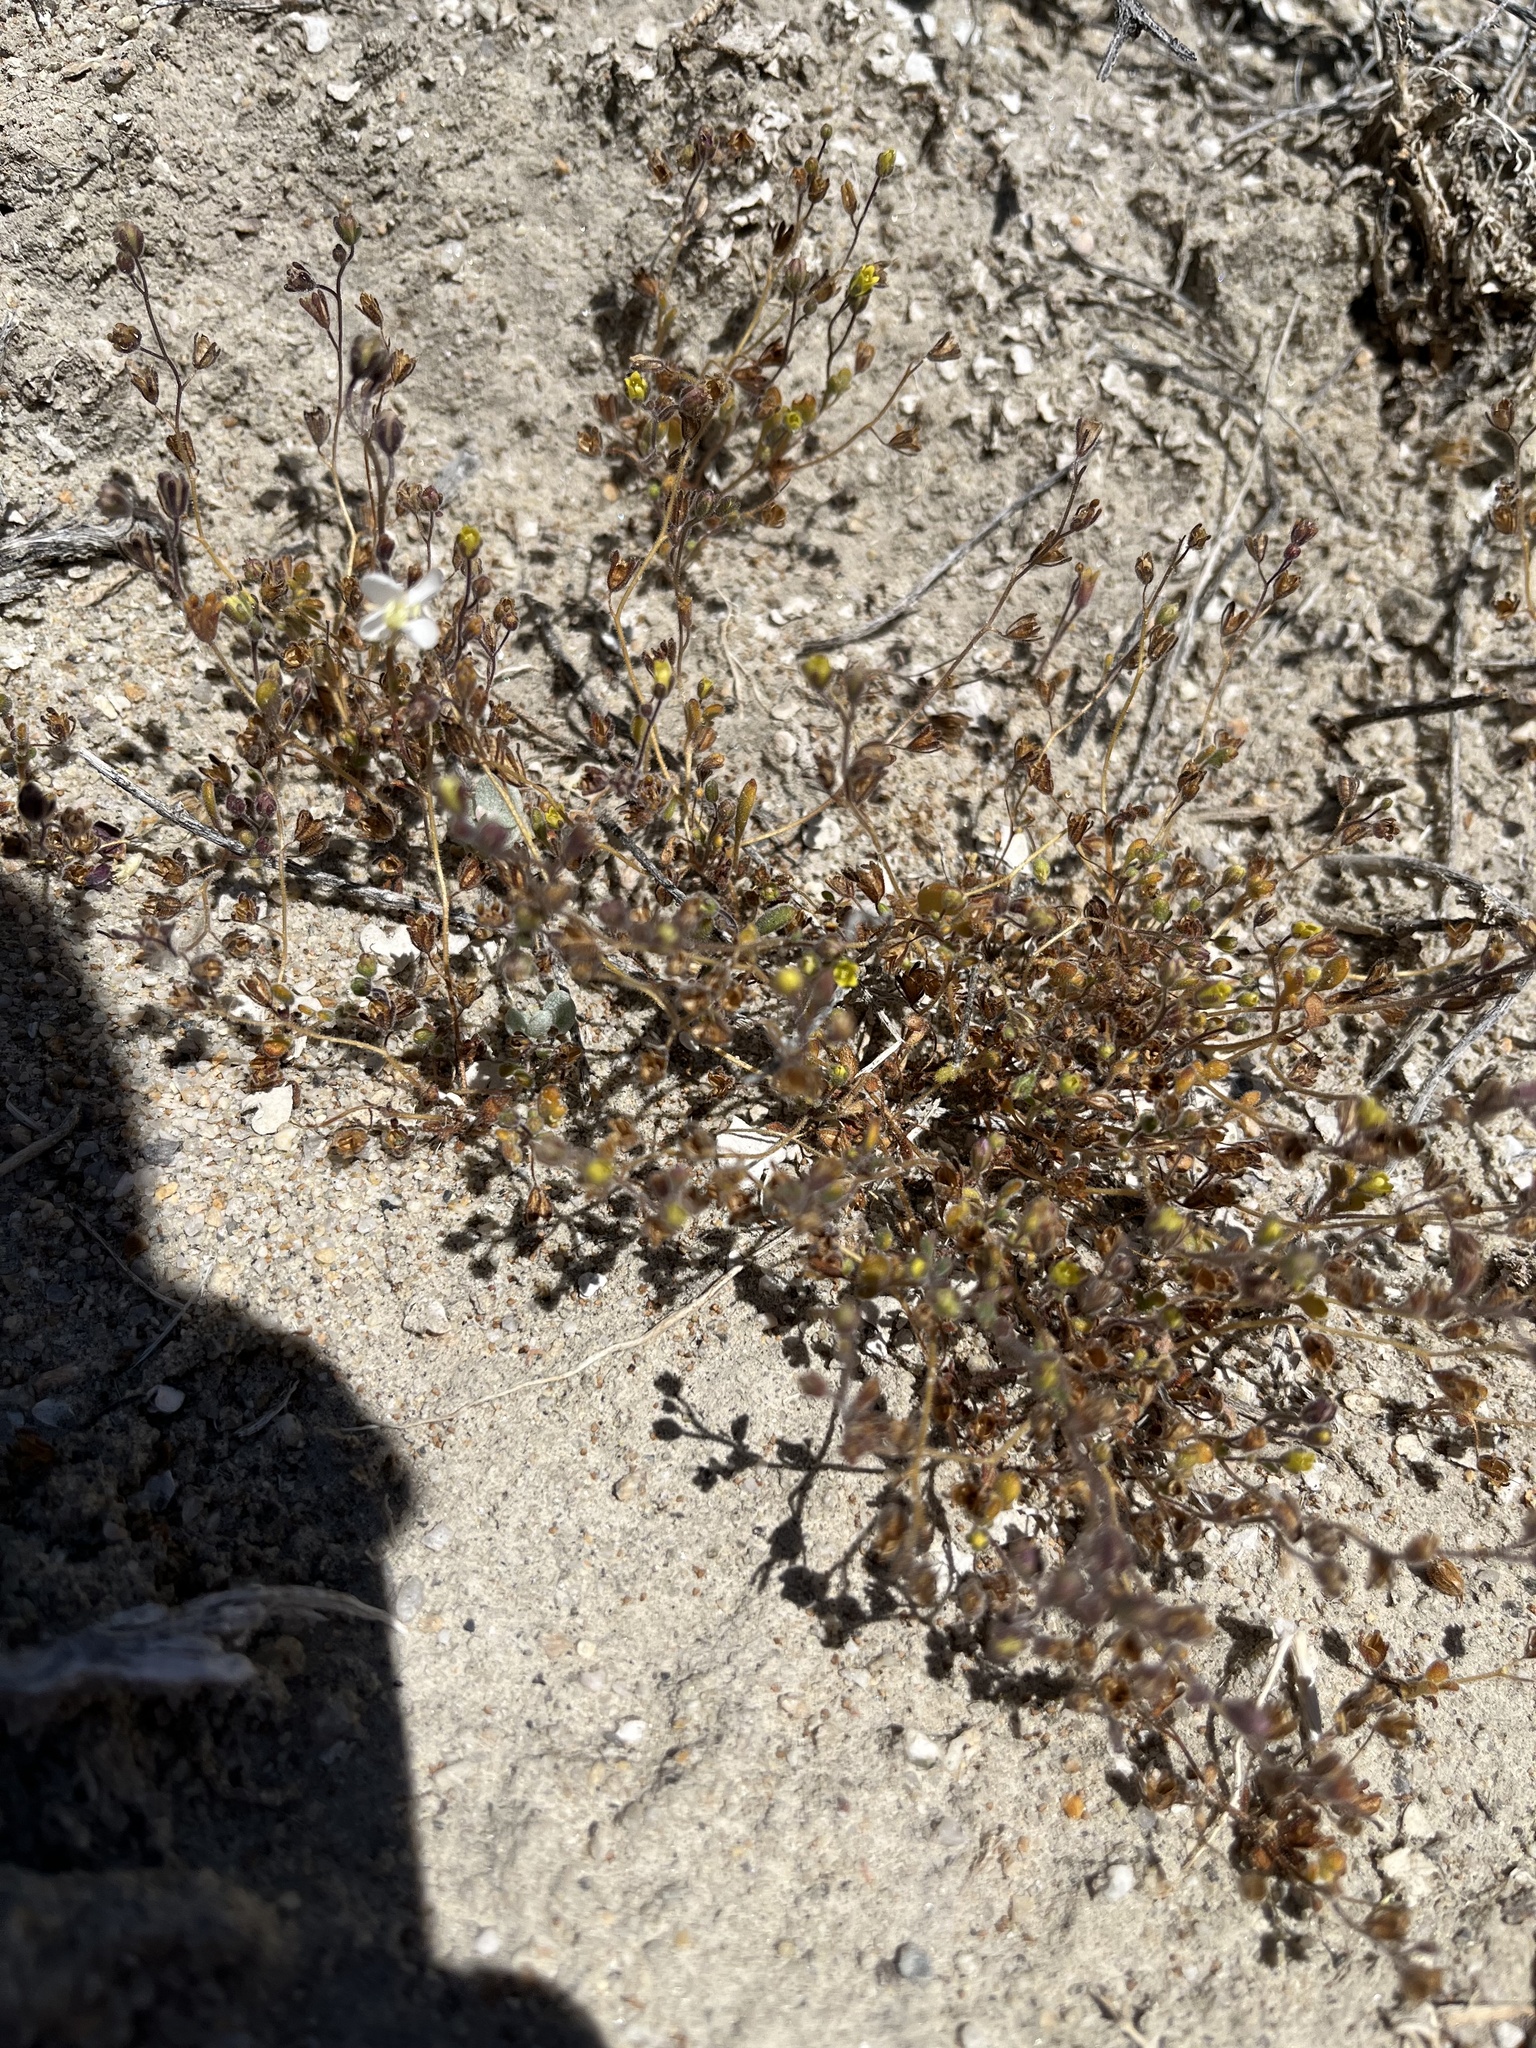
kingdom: Plantae
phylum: Tracheophyta
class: Magnoliopsida
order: Boraginales
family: Hydrophyllaceae
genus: Phacelia
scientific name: Phacelia inyoensis
